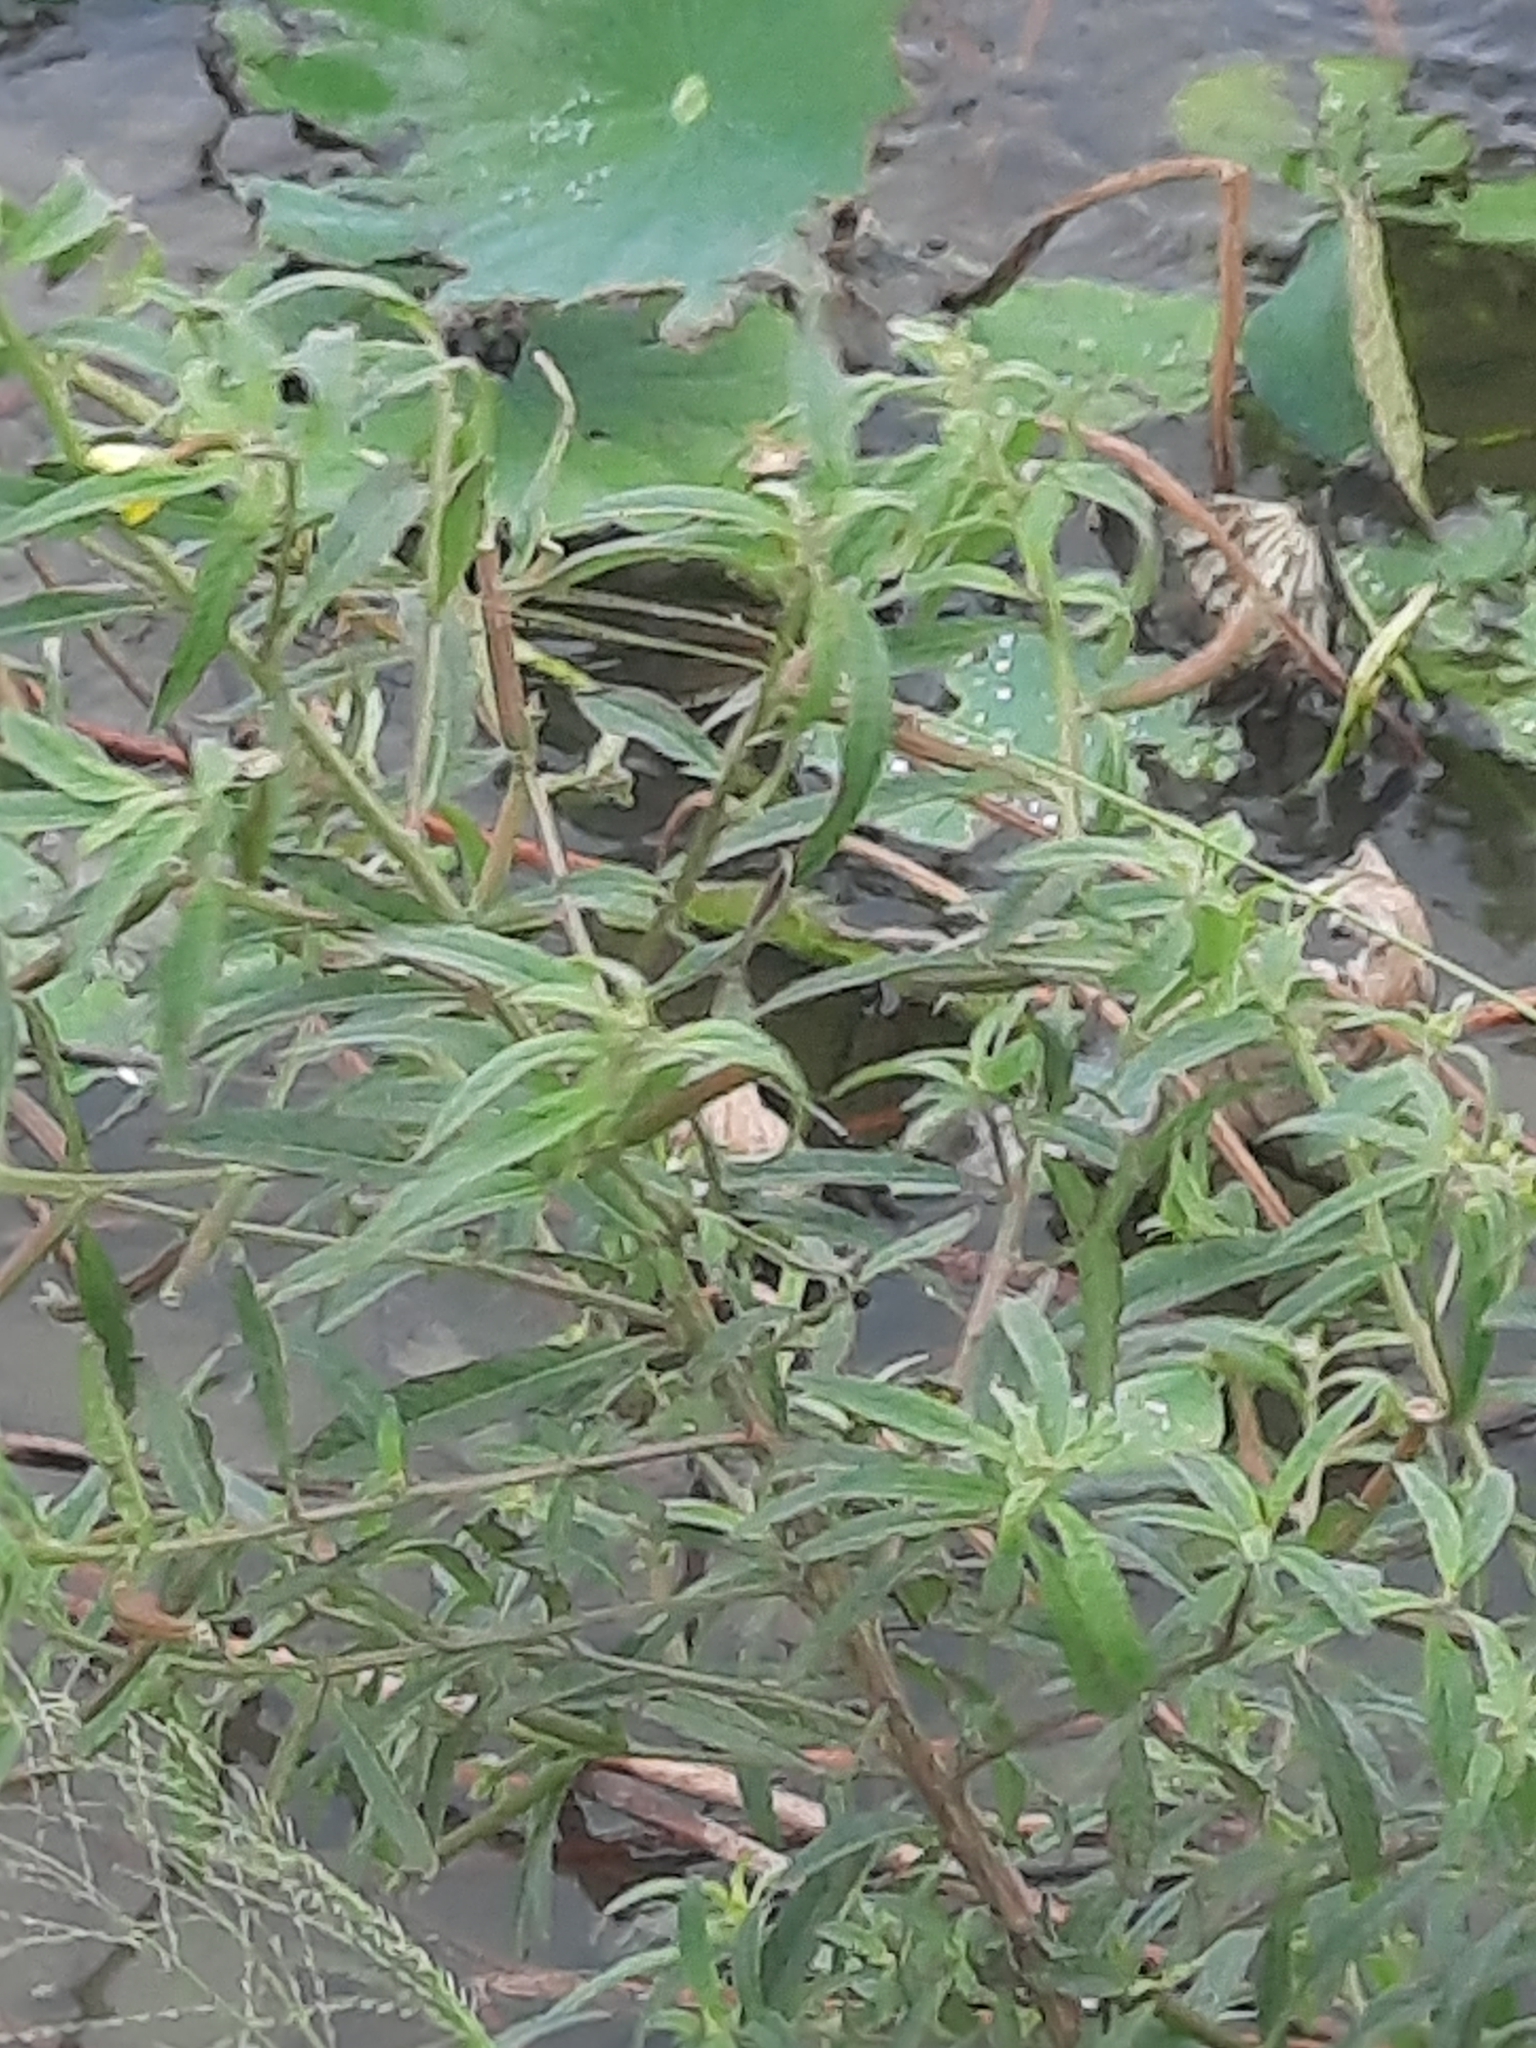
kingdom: Plantae
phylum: Tracheophyta
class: Magnoliopsida
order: Myrtales
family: Onagraceae
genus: Ludwigia
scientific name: Ludwigia octovalvis
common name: Water-primrose
